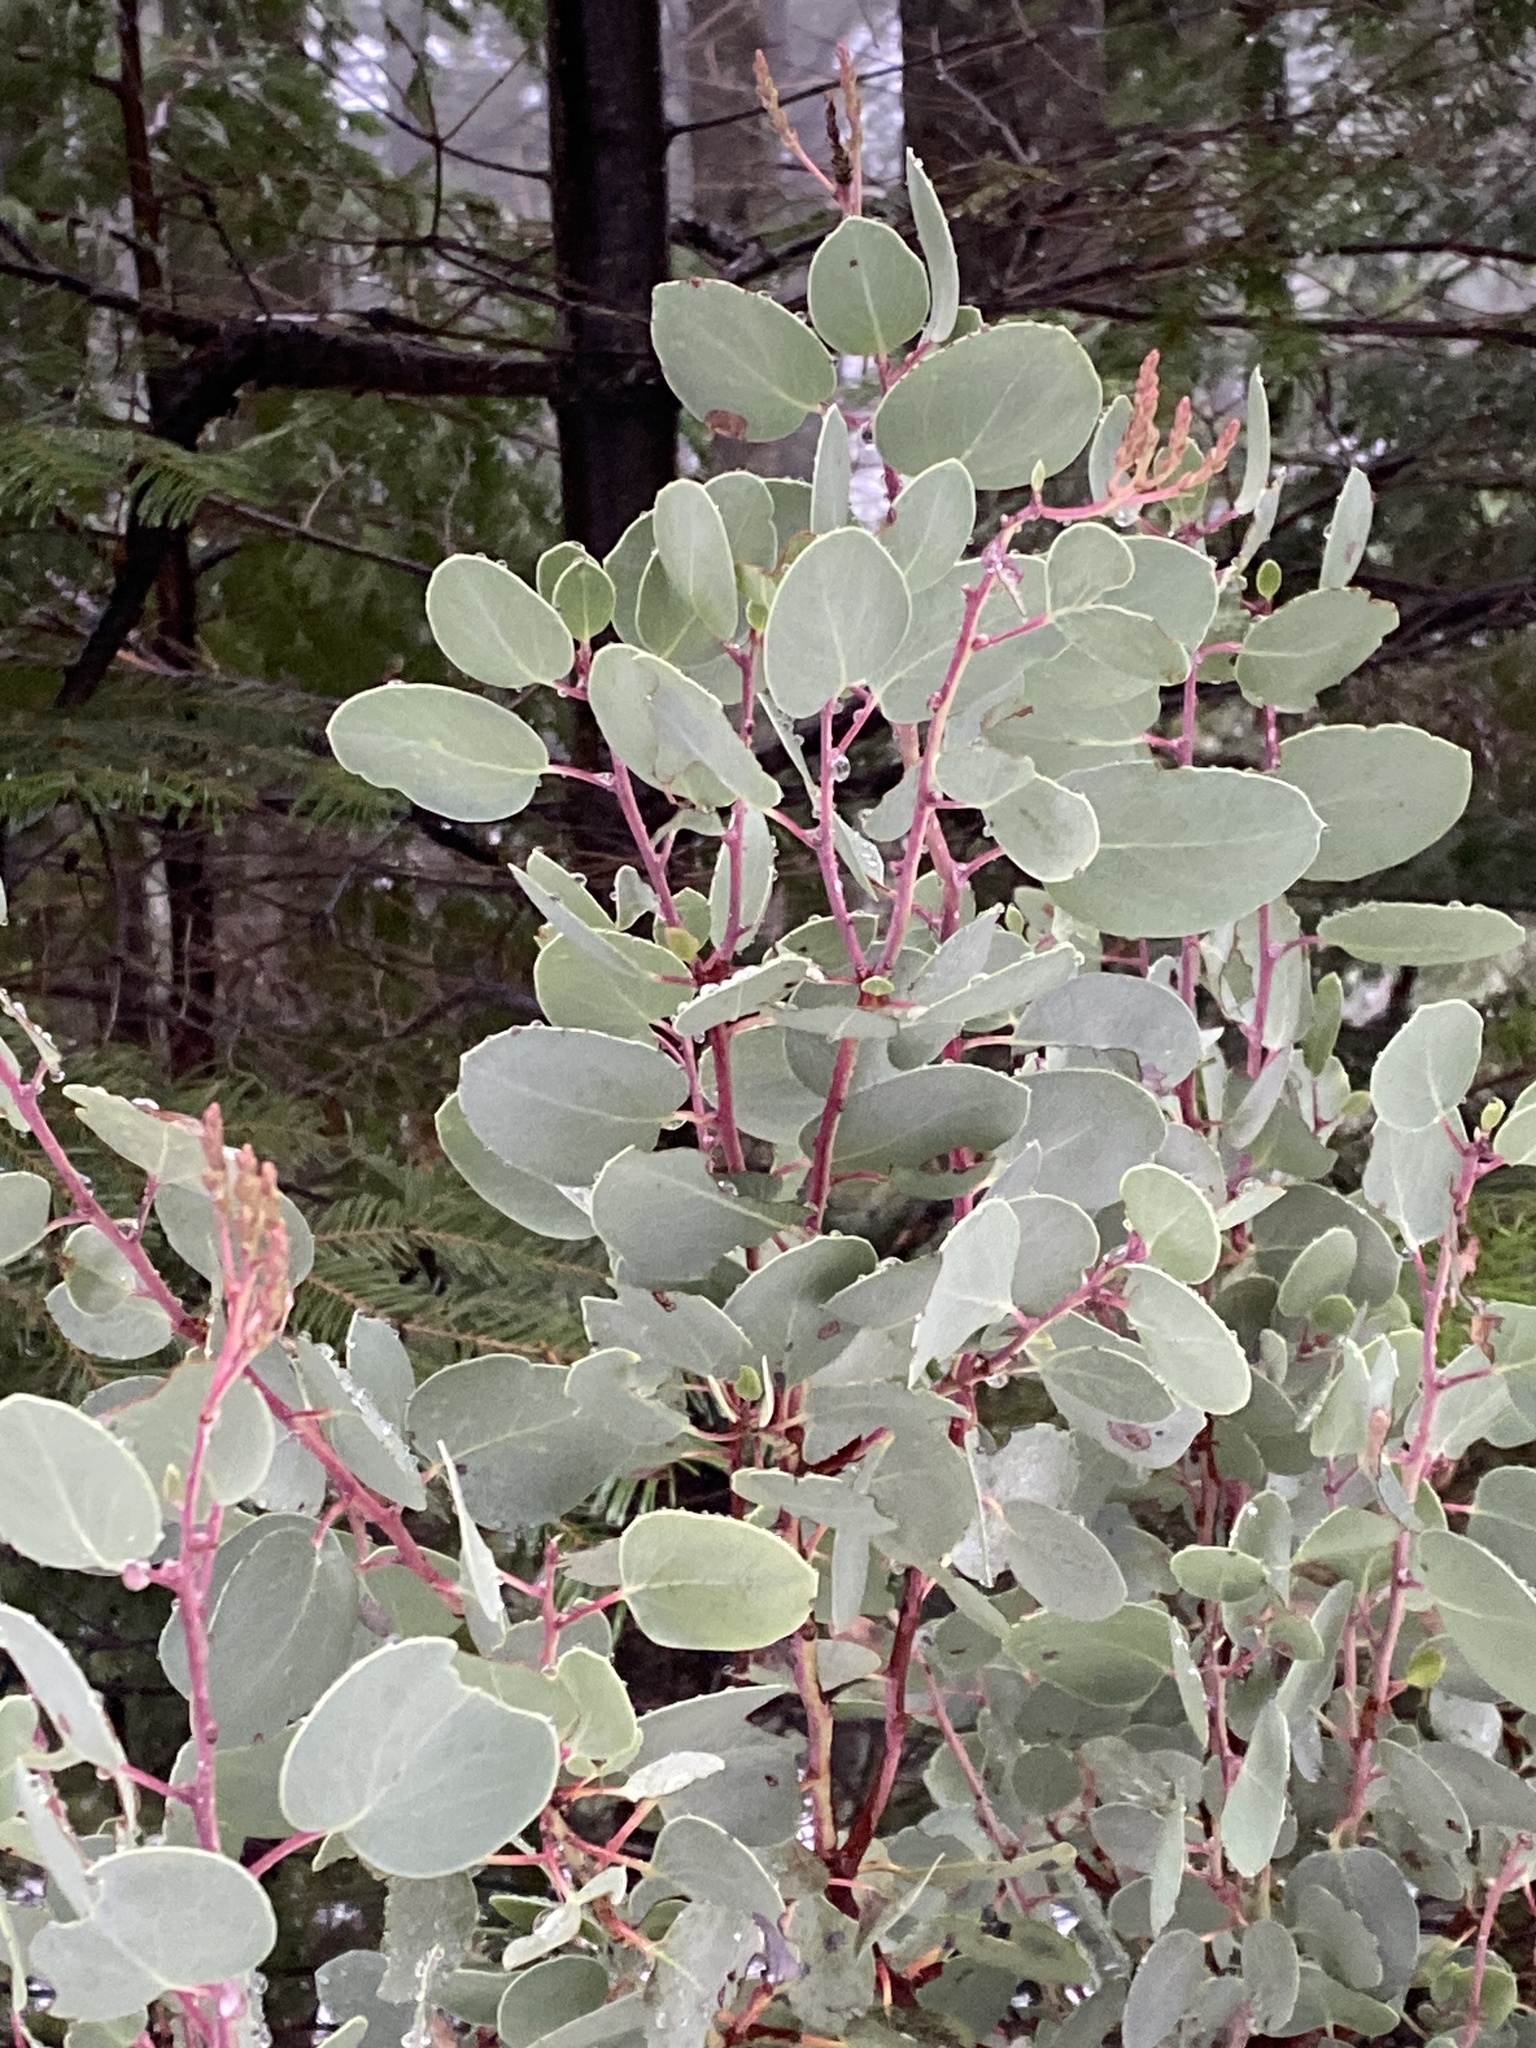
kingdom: Plantae
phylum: Tracheophyta
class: Magnoliopsida
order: Ericales
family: Ericaceae
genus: Arctostaphylos
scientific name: Arctostaphylos viscida
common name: White-leaf manzanita
